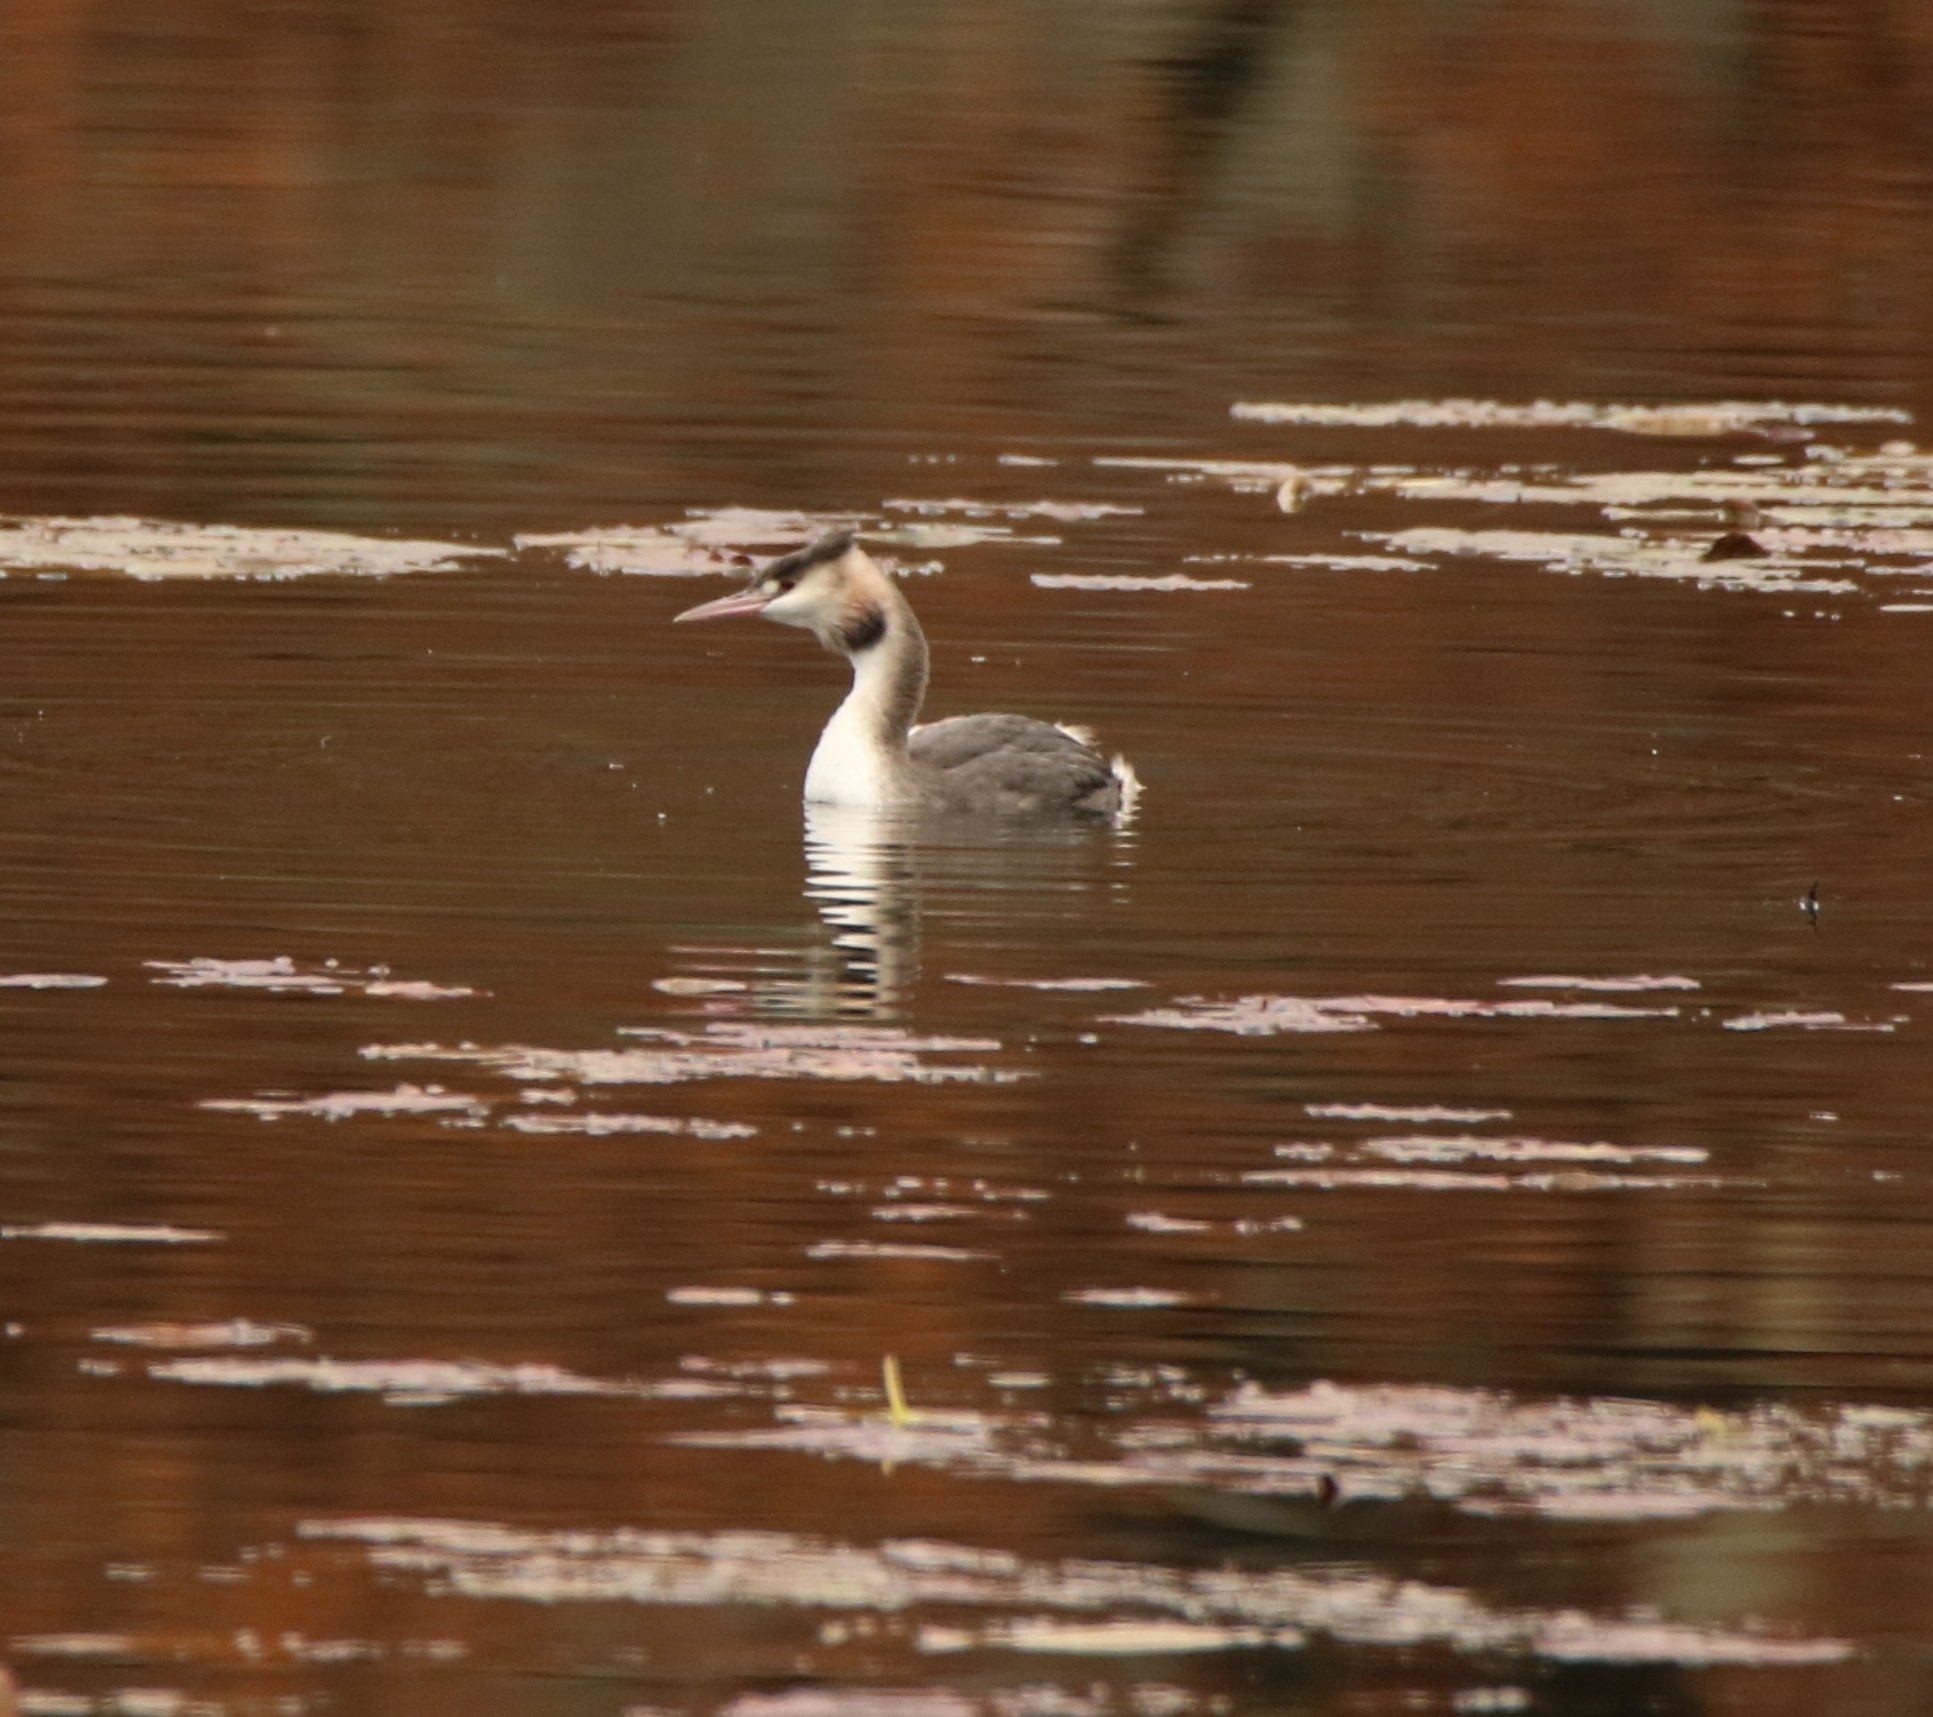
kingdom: Animalia
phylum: Chordata
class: Aves
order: Podicipediformes
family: Podicipedidae
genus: Podiceps
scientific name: Podiceps cristatus
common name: Great crested grebe
